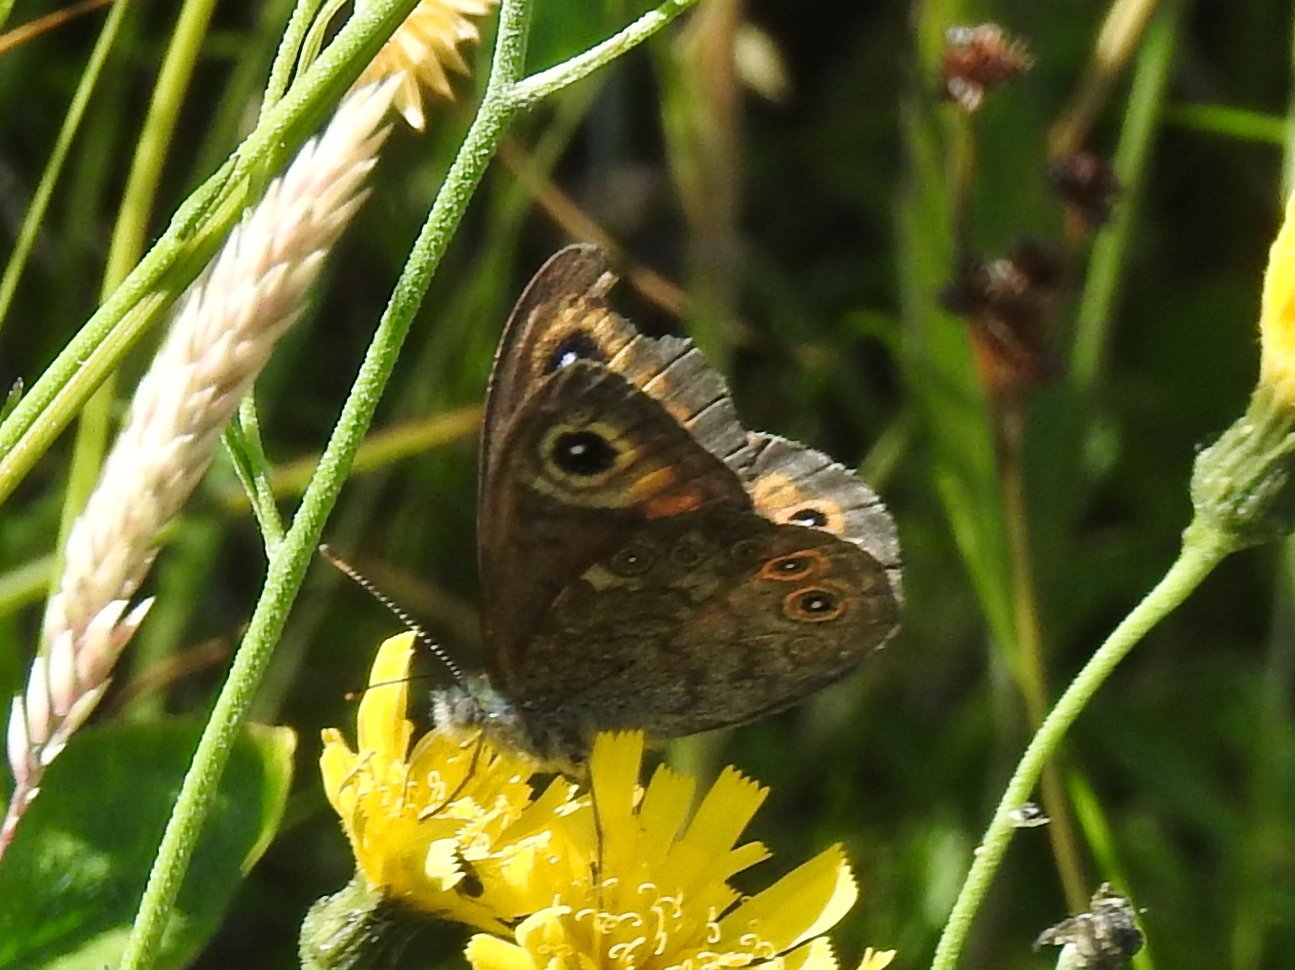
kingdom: Animalia
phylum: Arthropoda
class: Insecta
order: Lepidoptera
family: Nymphalidae
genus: Pararge
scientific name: Pararge Lasiommata maera
